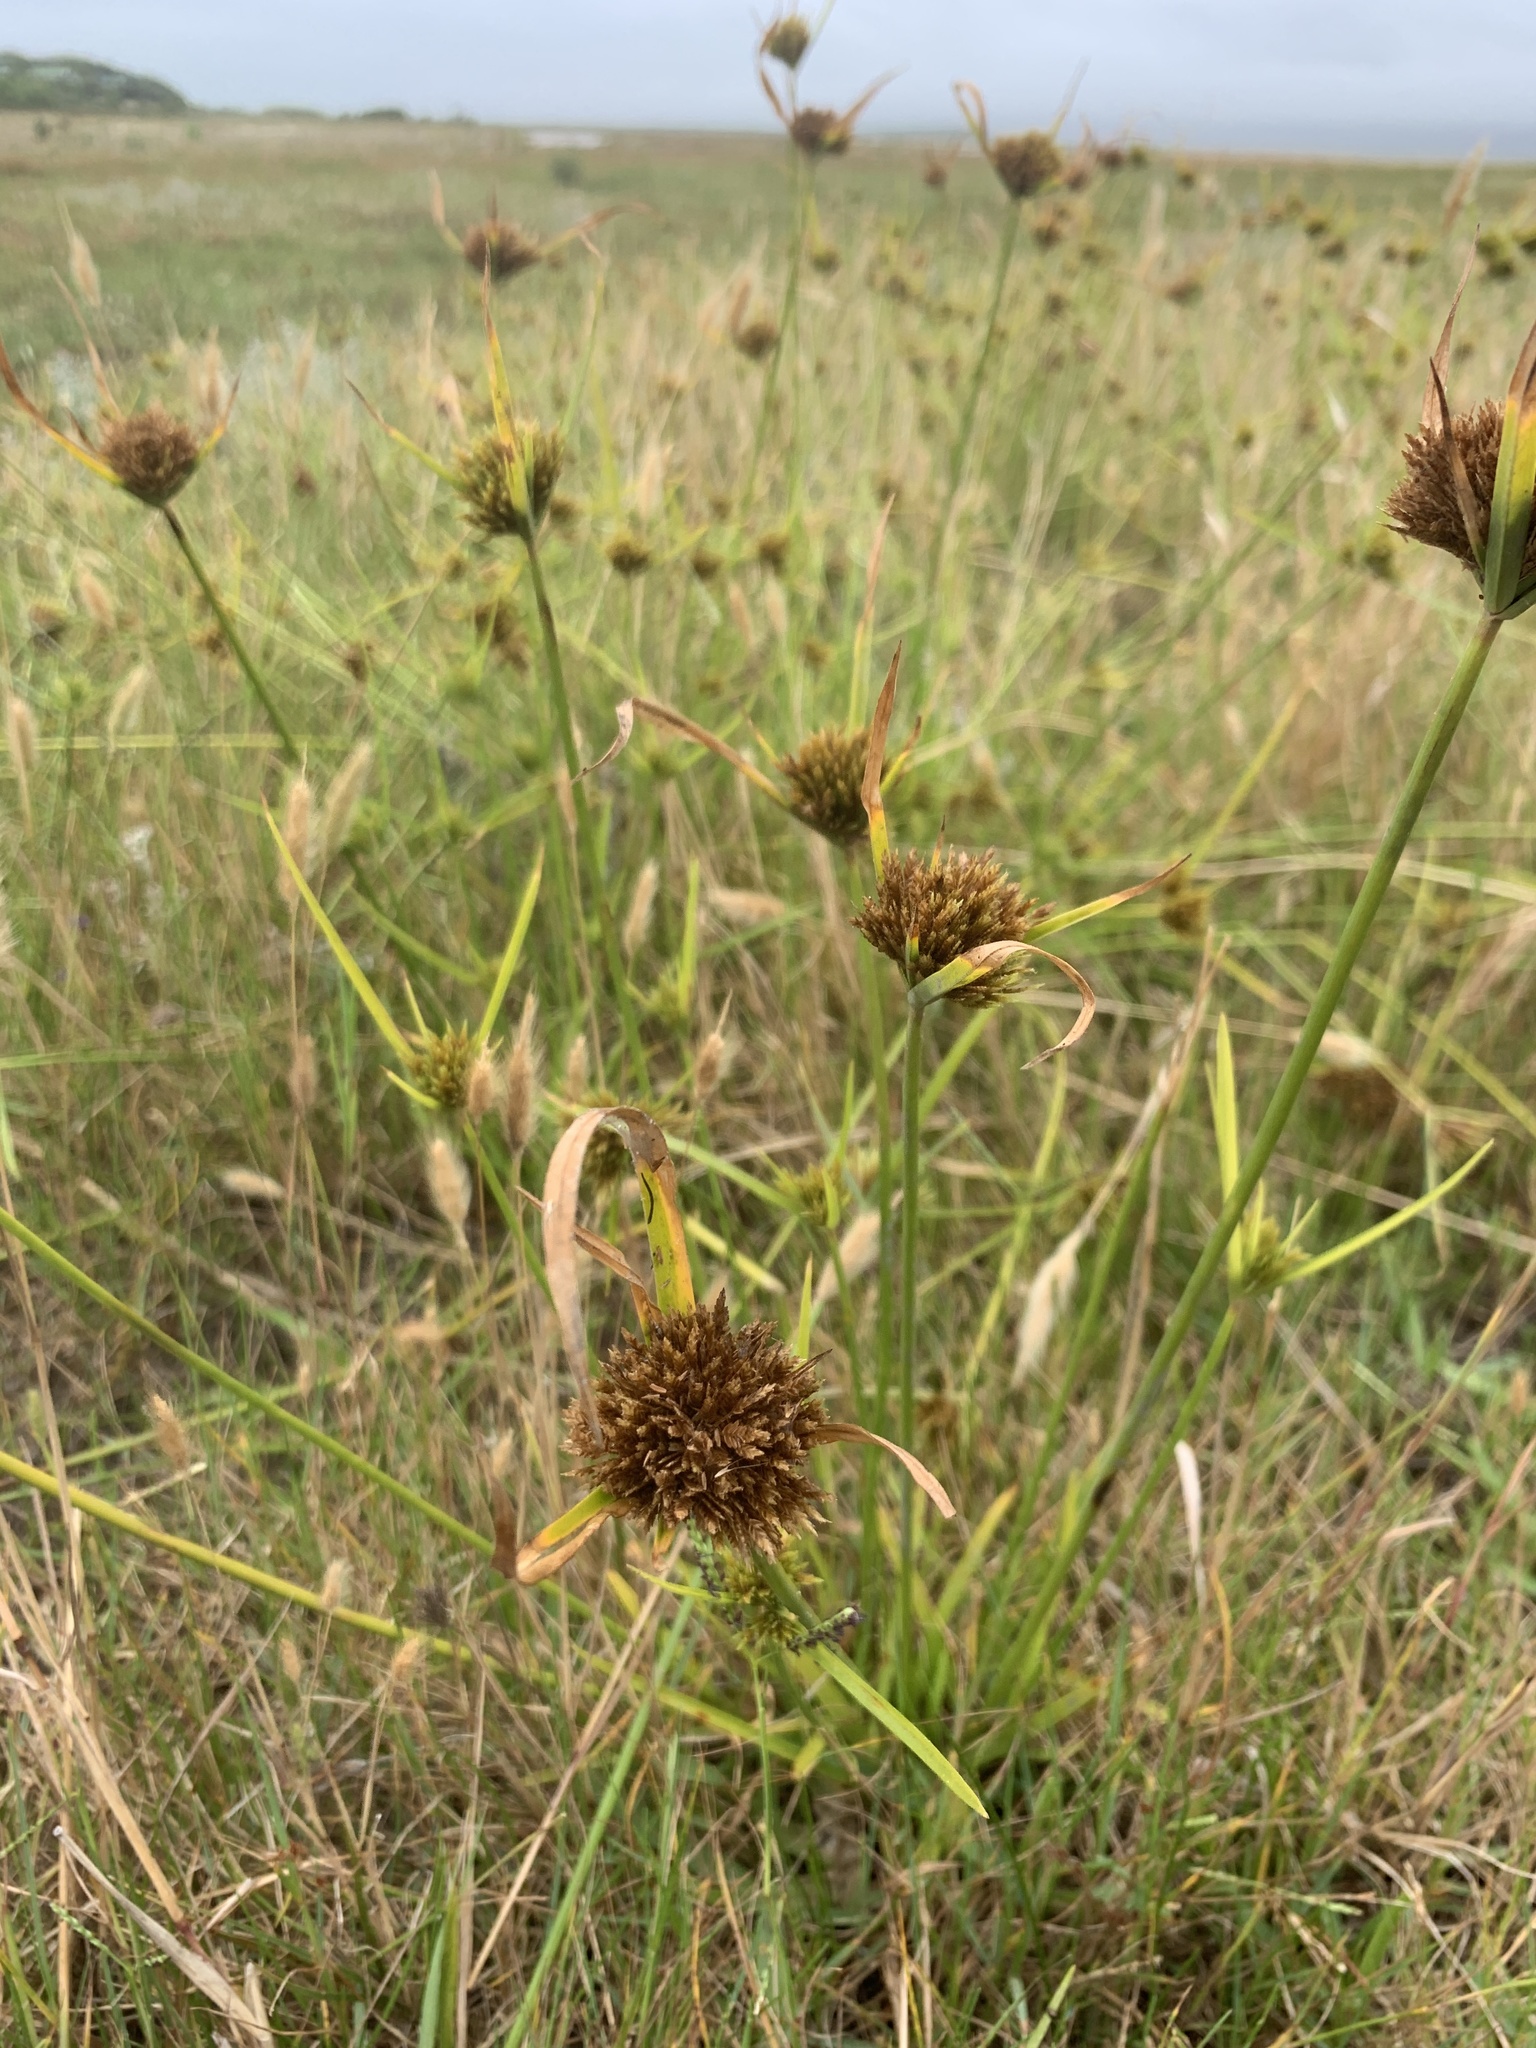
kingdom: Plantae
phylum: Tracheophyta
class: Liliopsida
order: Poales
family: Cyperaceae
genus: Cyperus
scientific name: Cyperus polystachyos
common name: Bunchy flat sedge
